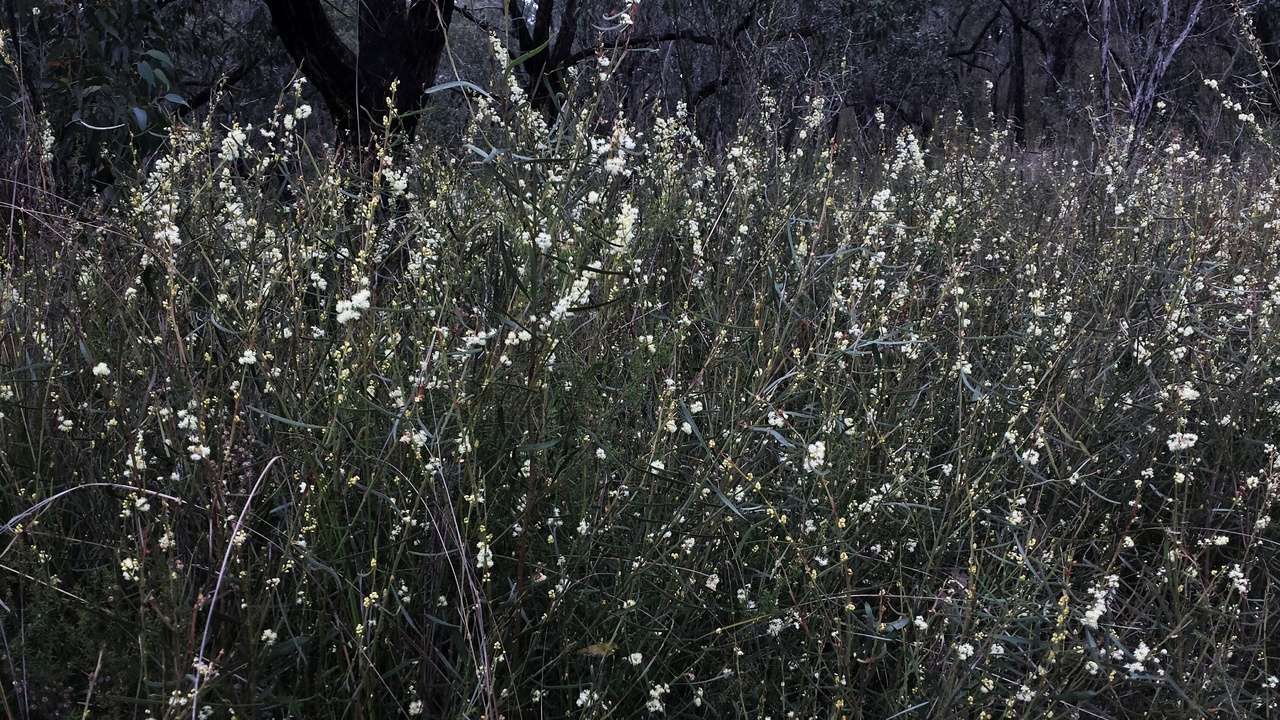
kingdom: Plantae
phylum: Tracheophyta
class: Magnoliopsida
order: Fabales
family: Fabaceae
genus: Acacia
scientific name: Acacia suaveolens
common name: Sweet acacia
